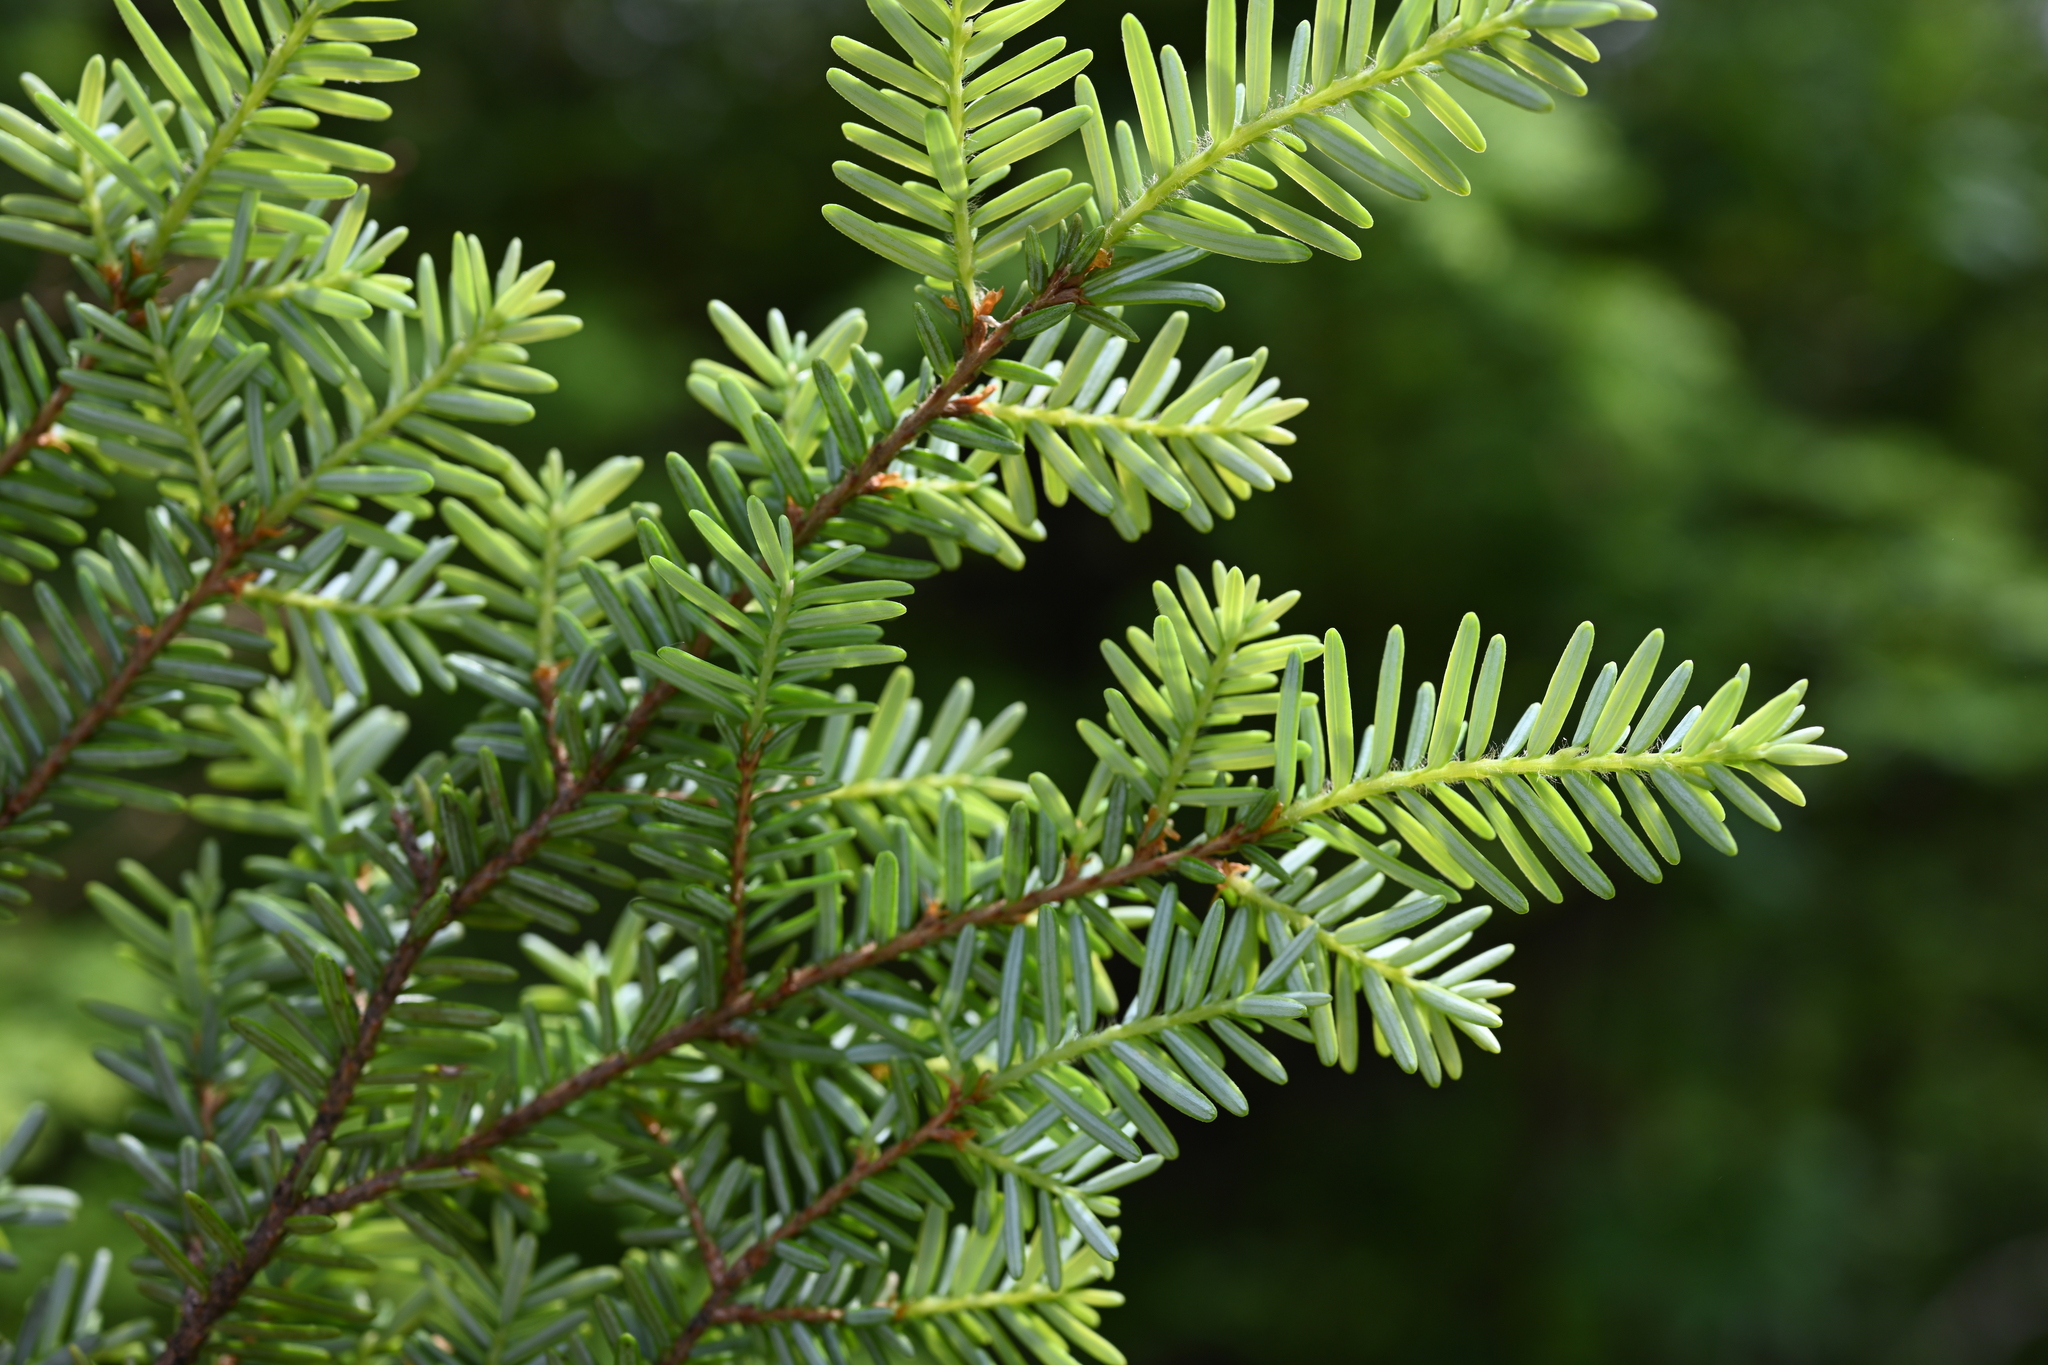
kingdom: Plantae
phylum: Tracheophyta
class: Pinopsida
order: Pinales
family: Pinaceae
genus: Tsuga
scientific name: Tsuga heterophylla
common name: Western hemlock
